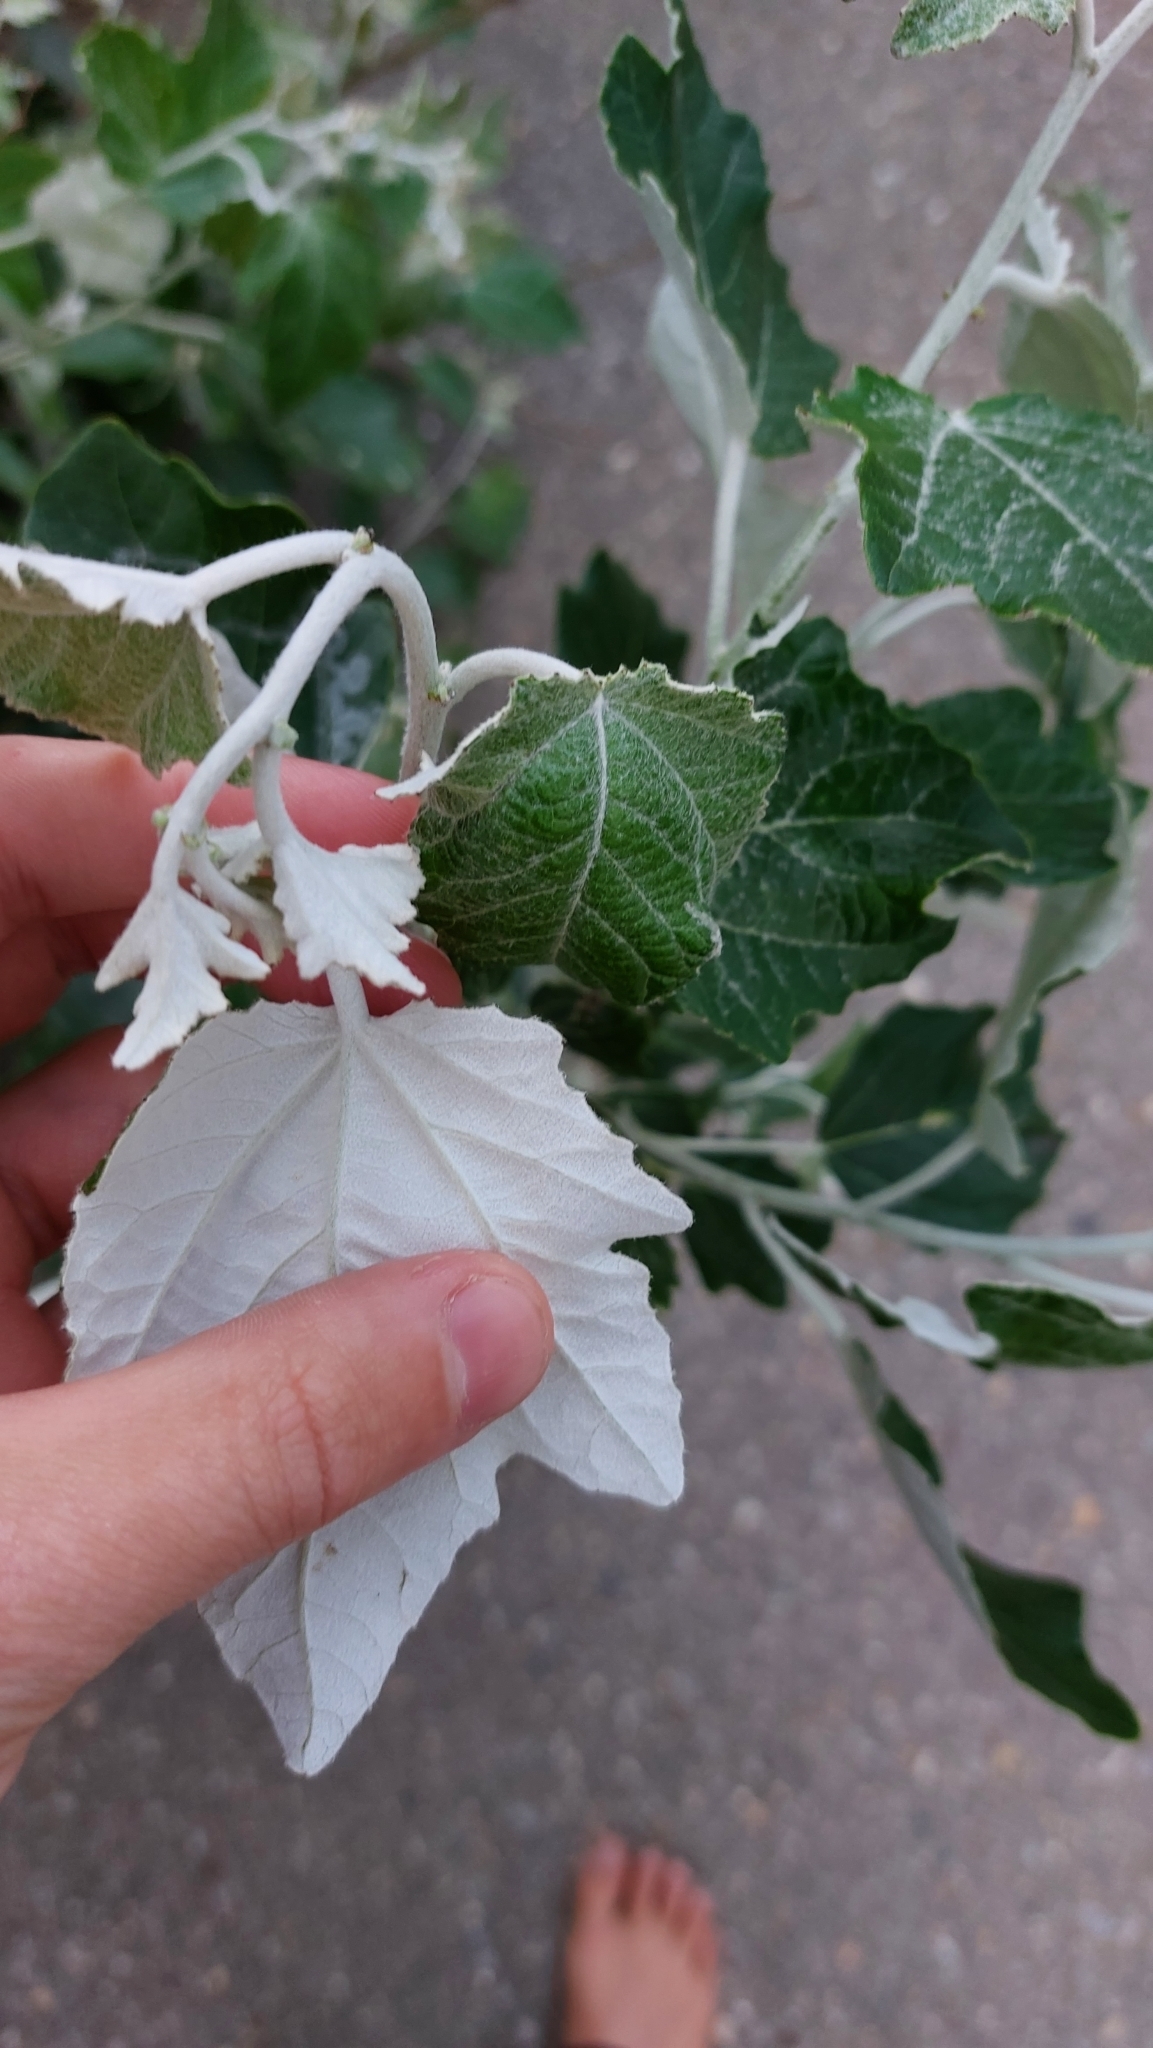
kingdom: Plantae
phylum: Tracheophyta
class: Magnoliopsida
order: Malpighiales
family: Salicaceae
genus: Populus
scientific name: Populus alba
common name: White poplar
